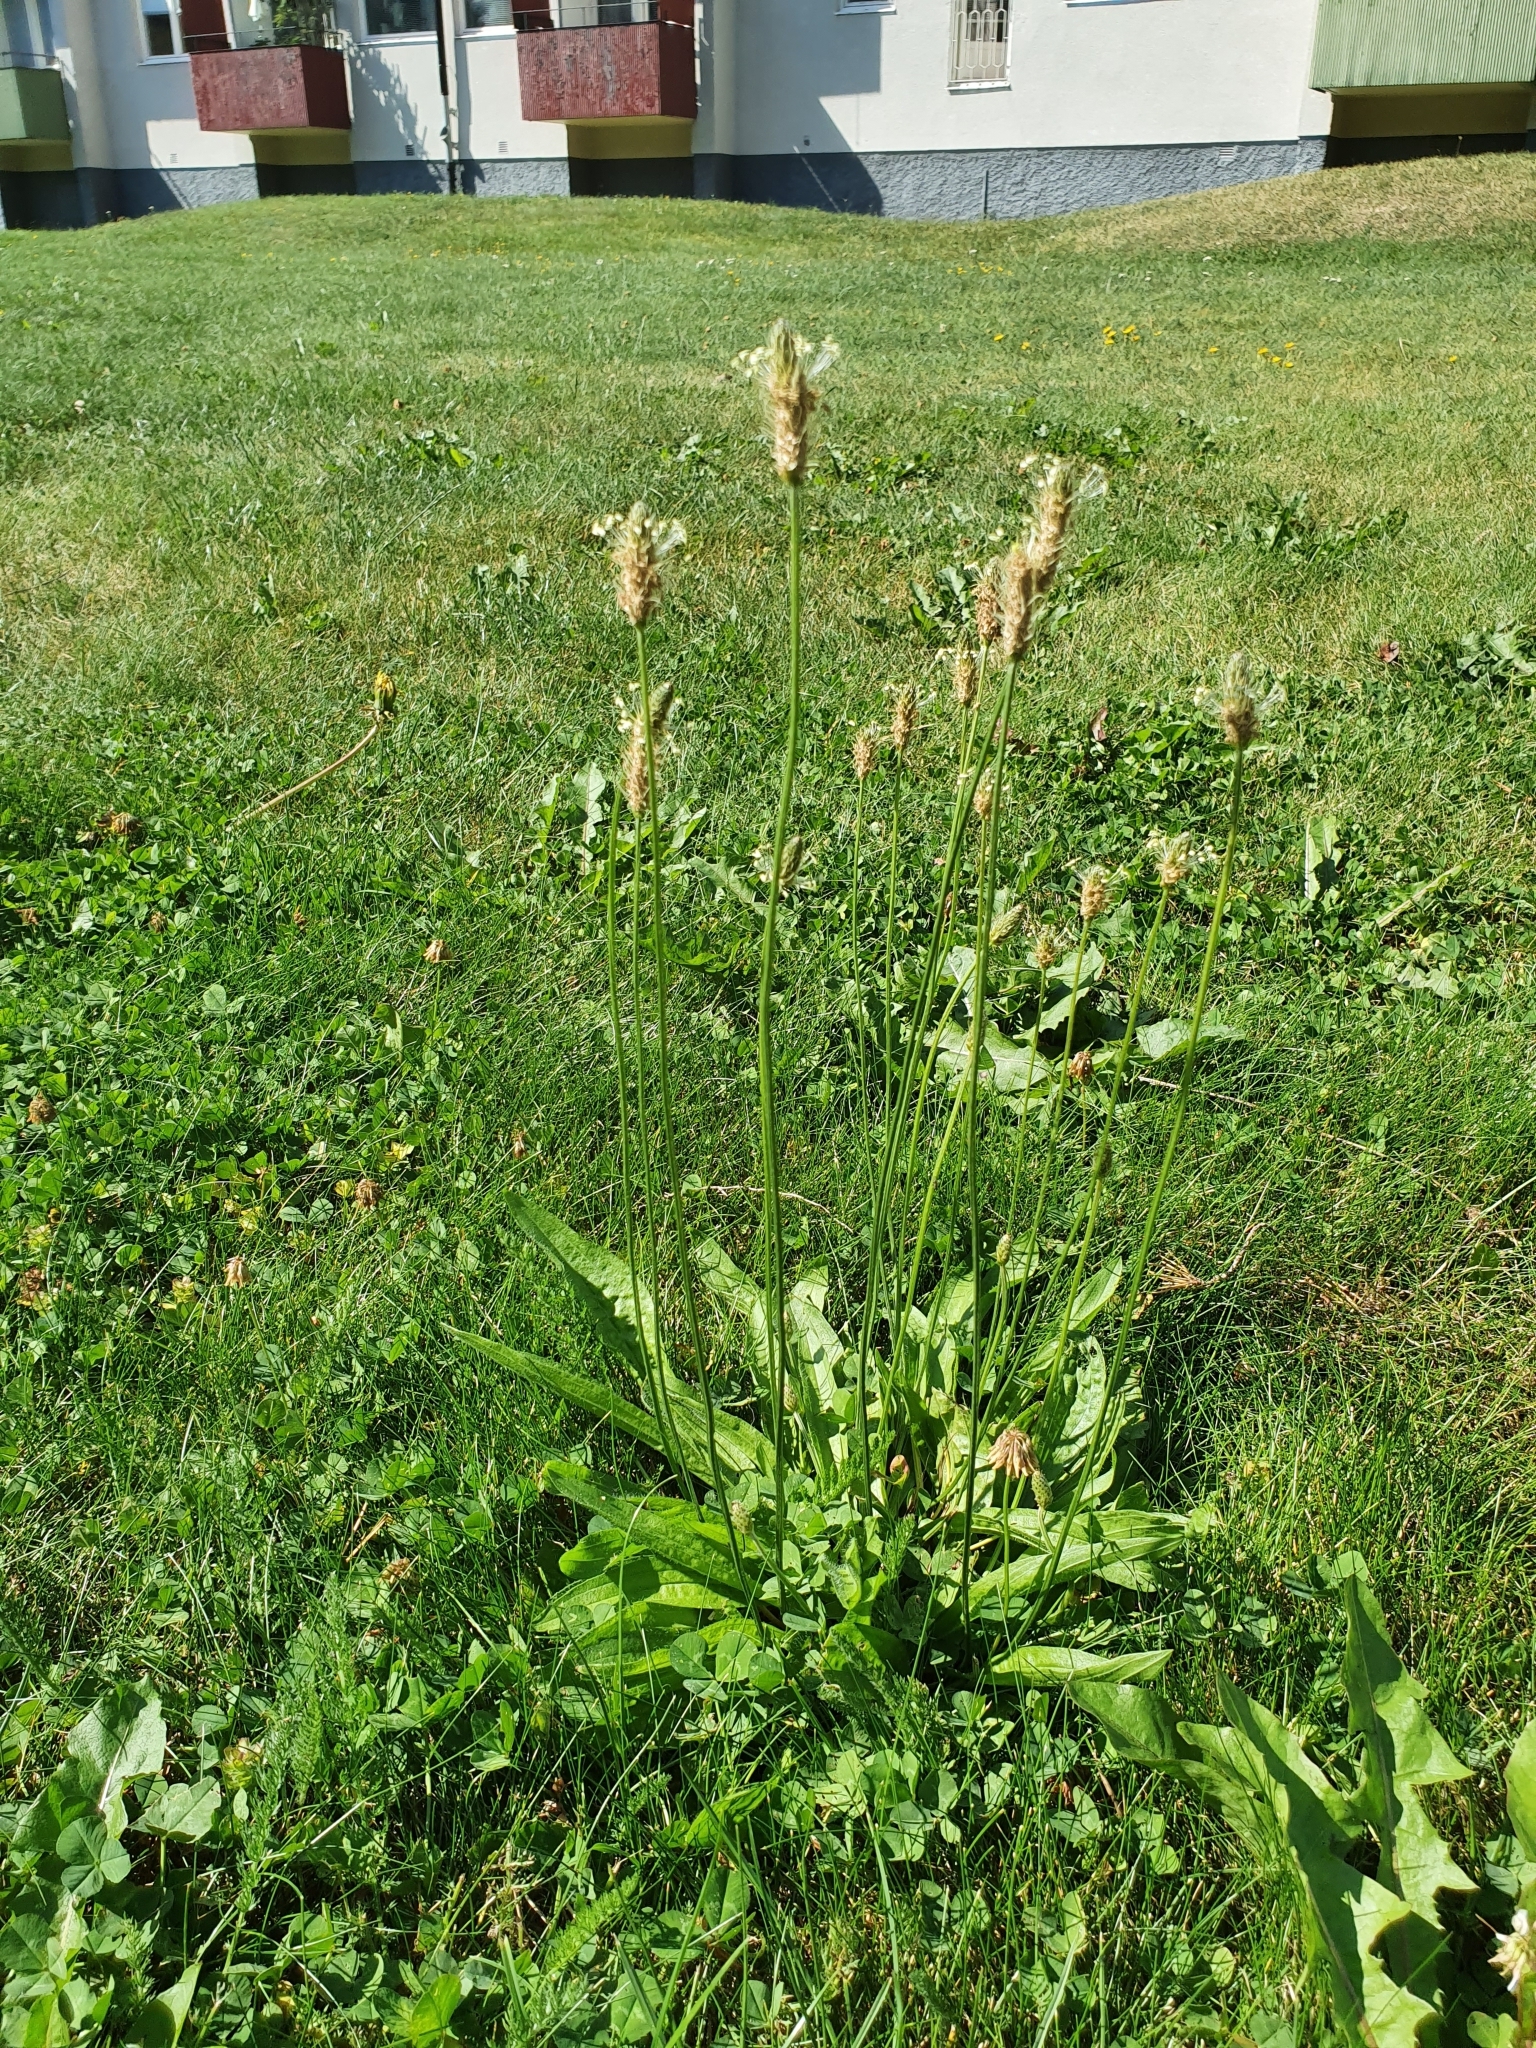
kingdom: Plantae
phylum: Tracheophyta
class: Magnoliopsida
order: Lamiales
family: Plantaginaceae
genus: Plantago
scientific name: Plantago lanceolata
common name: Ribwort plantain
